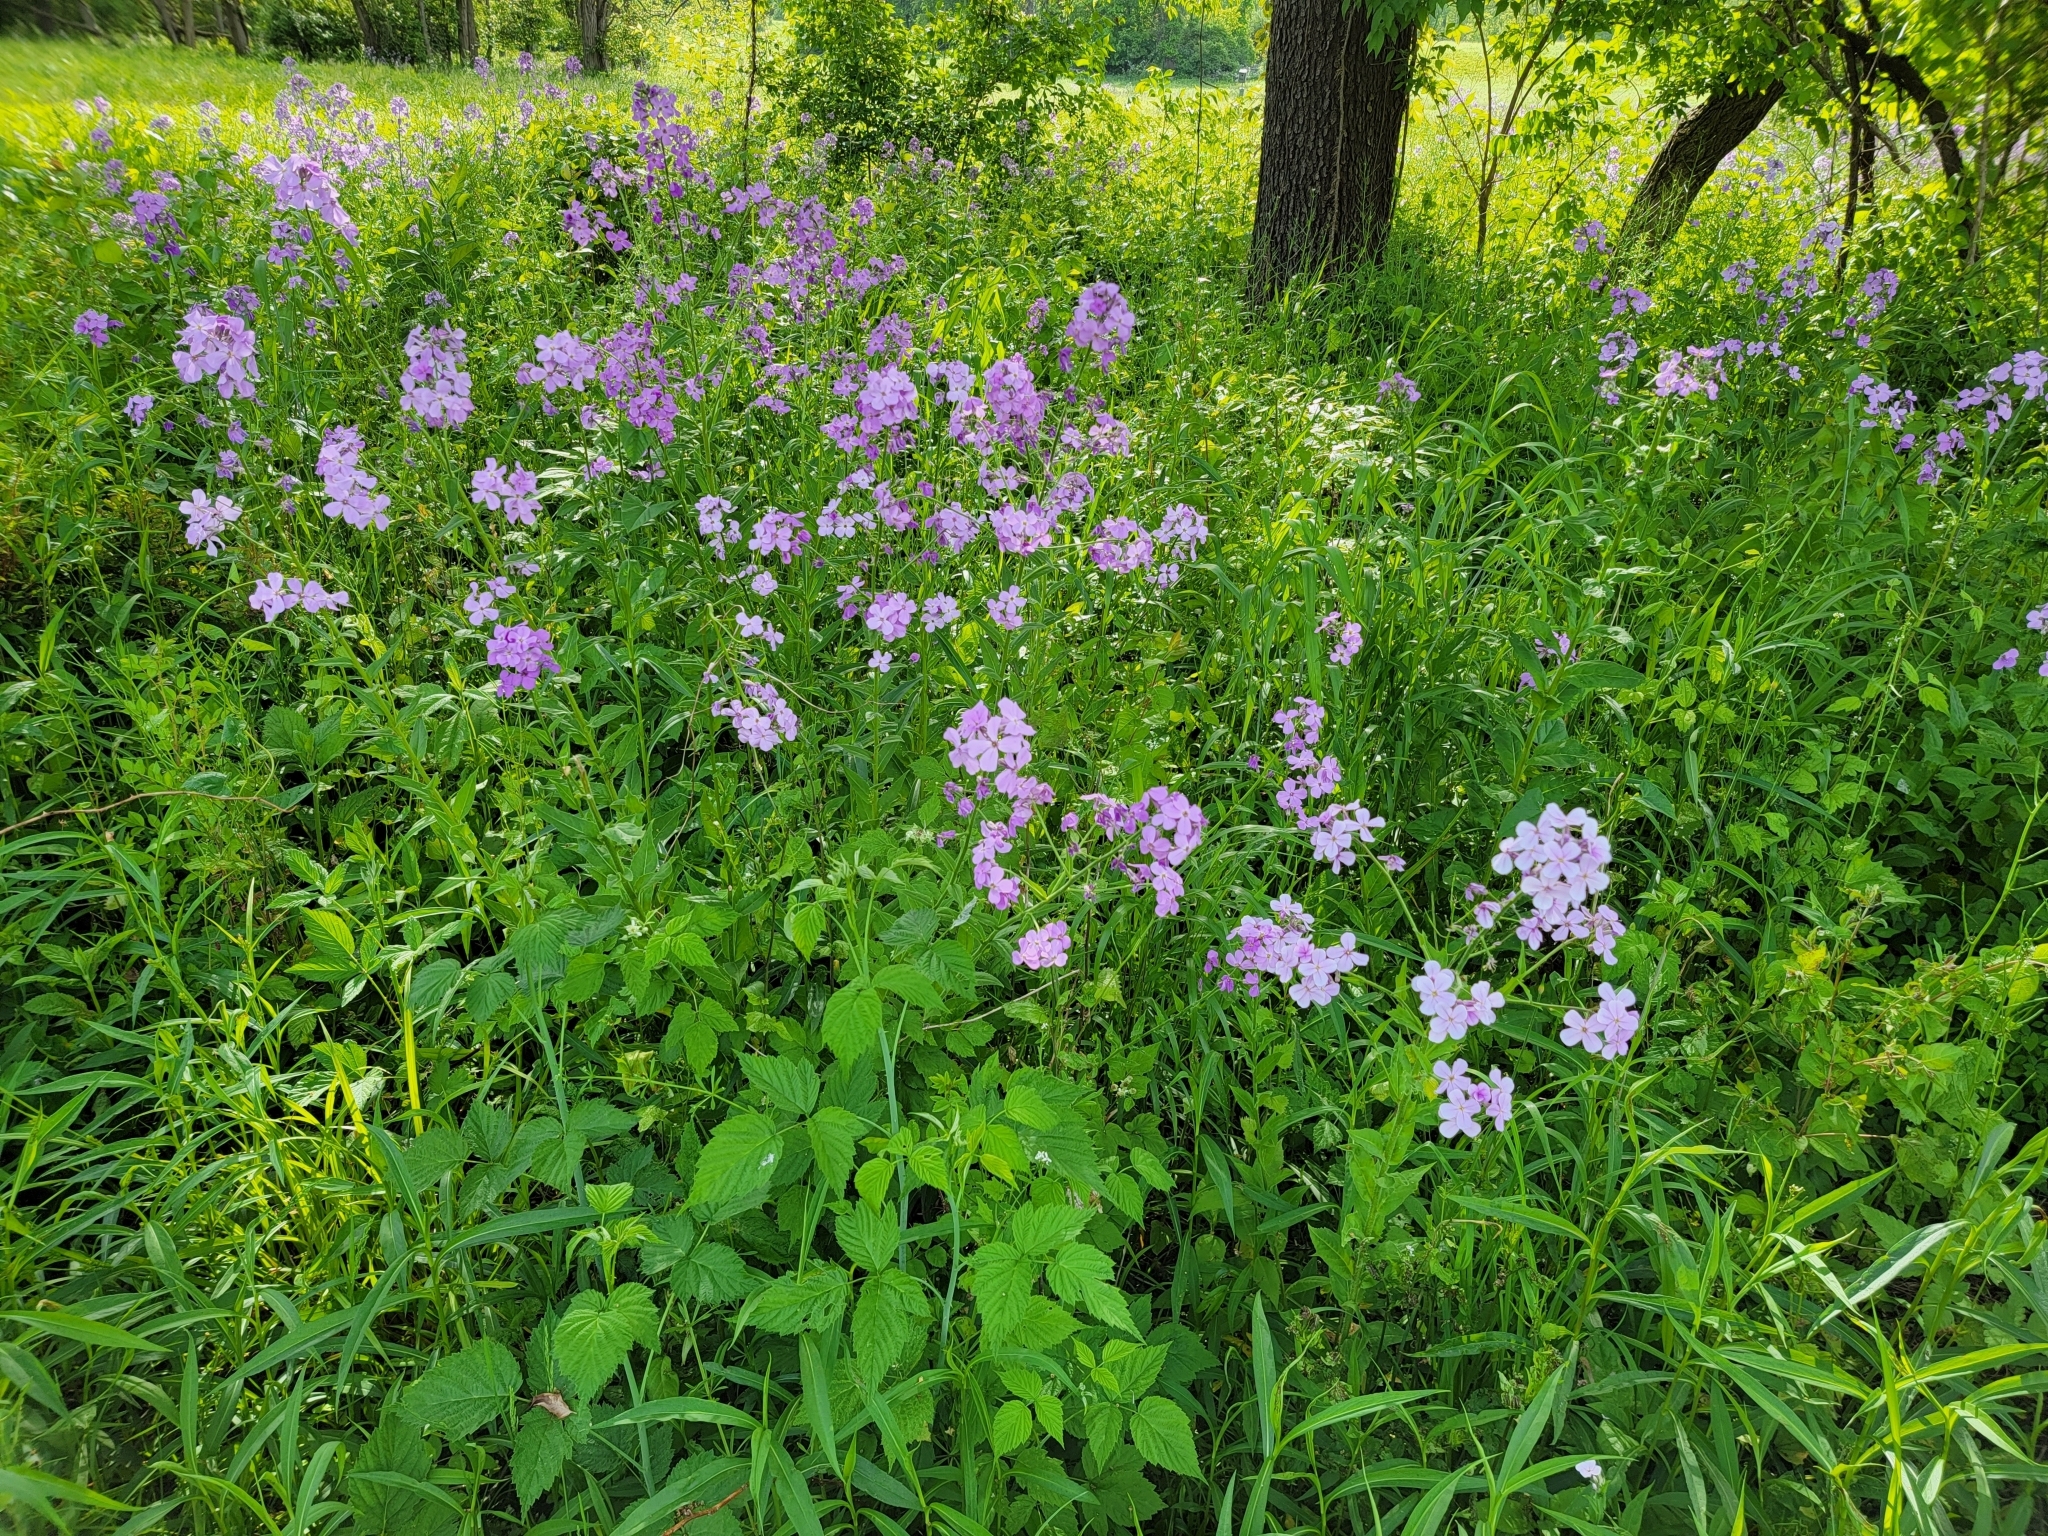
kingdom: Plantae
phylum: Tracheophyta
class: Magnoliopsida
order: Brassicales
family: Brassicaceae
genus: Hesperis
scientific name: Hesperis matronalis
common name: Dame's-violet
